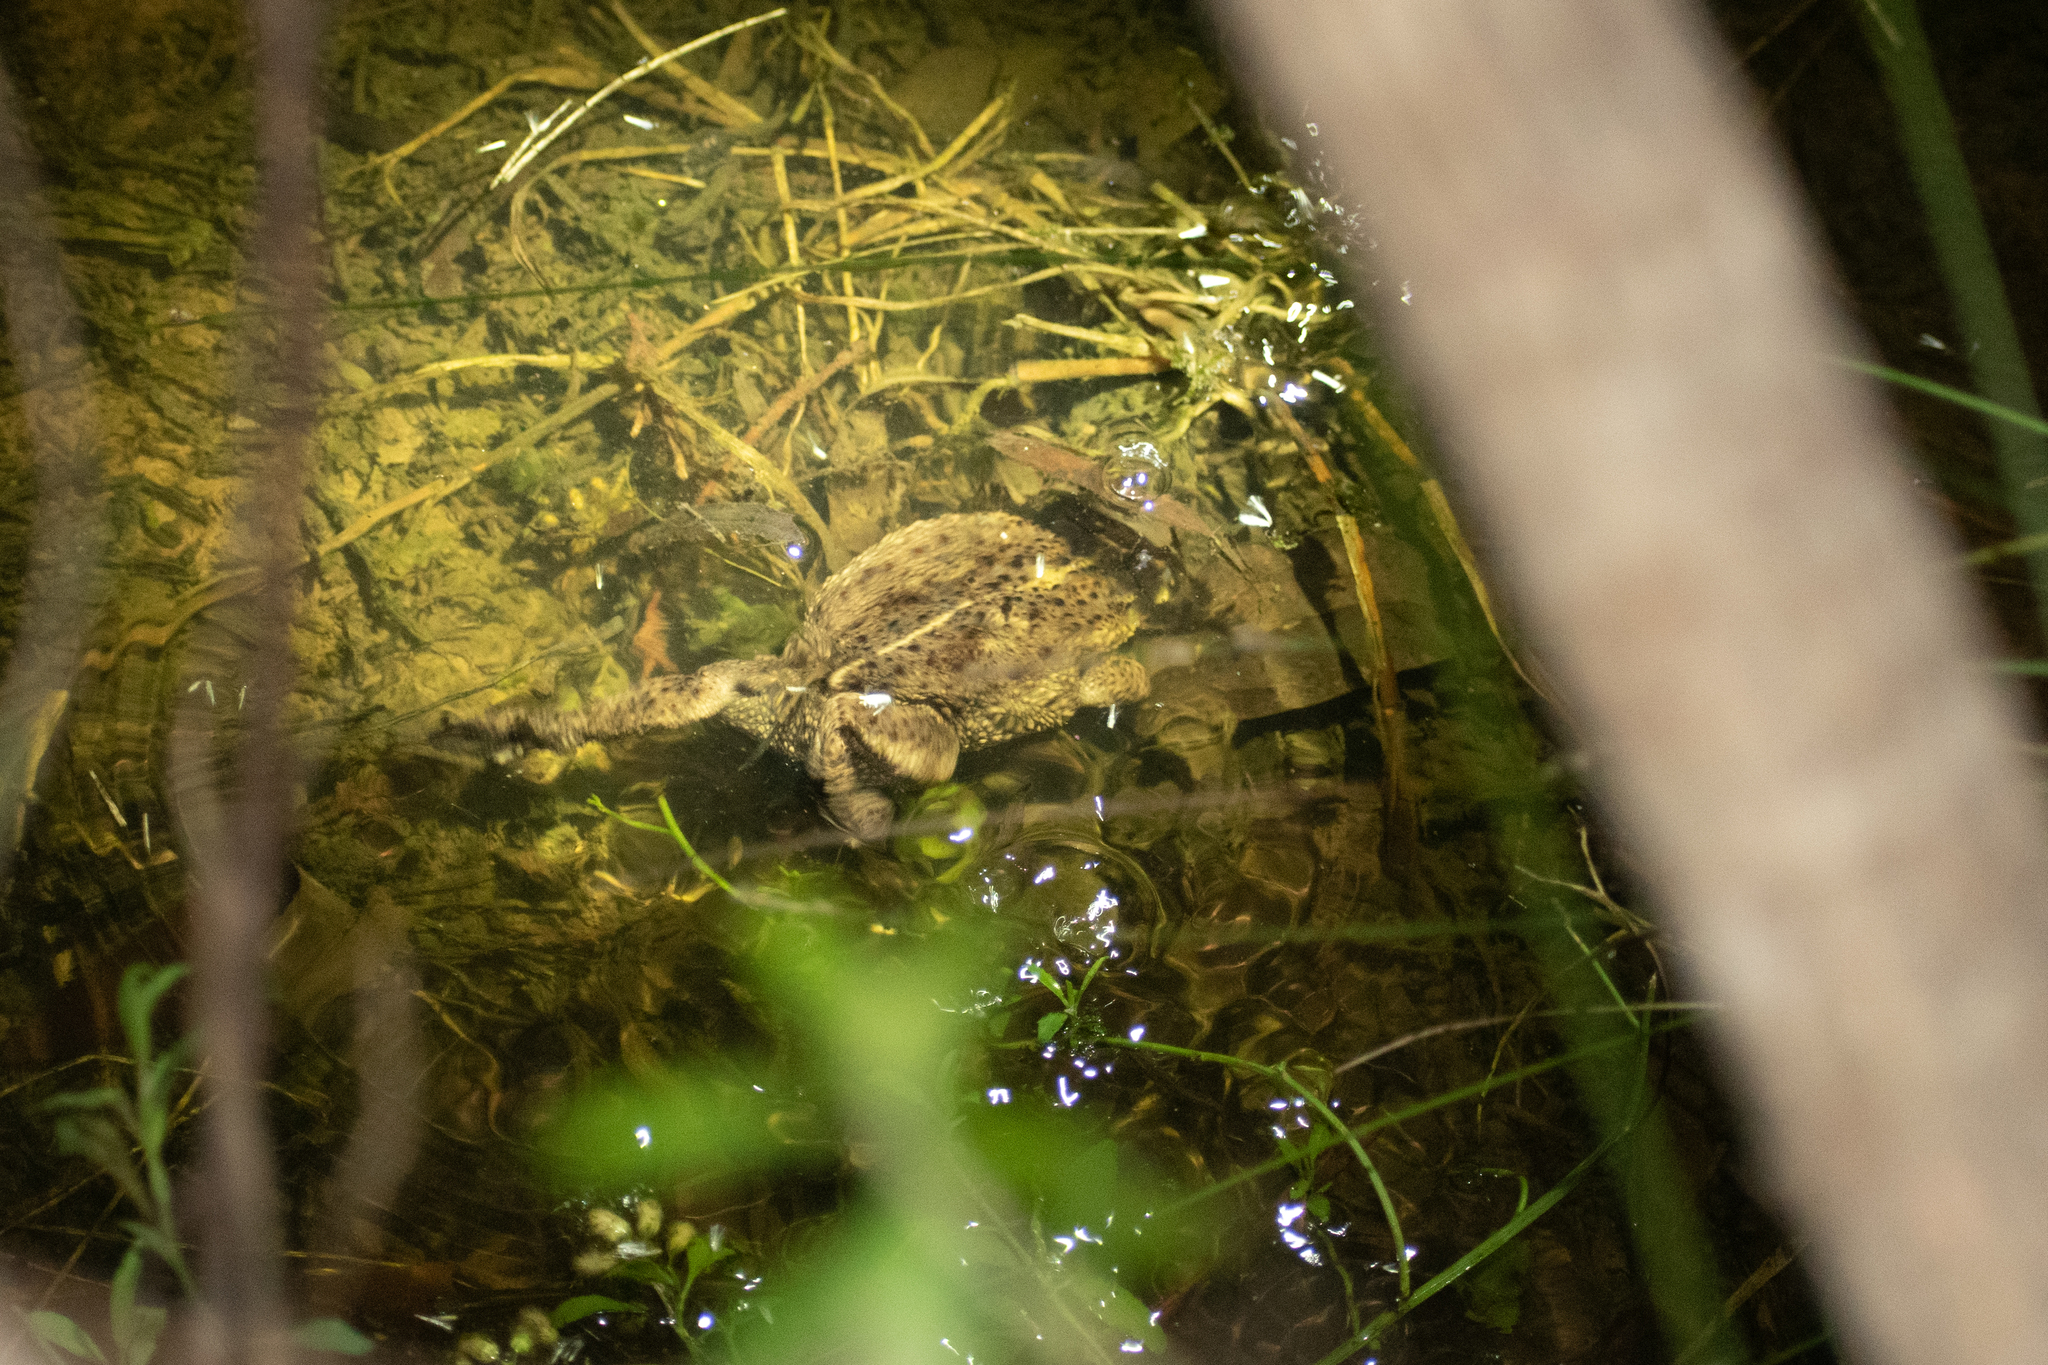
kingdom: Animalia
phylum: Chordata
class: Amphibia
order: Anura
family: Bufonidae
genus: Rhinella
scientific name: Rhinella dorbignyi
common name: D´orbigny’s toad
